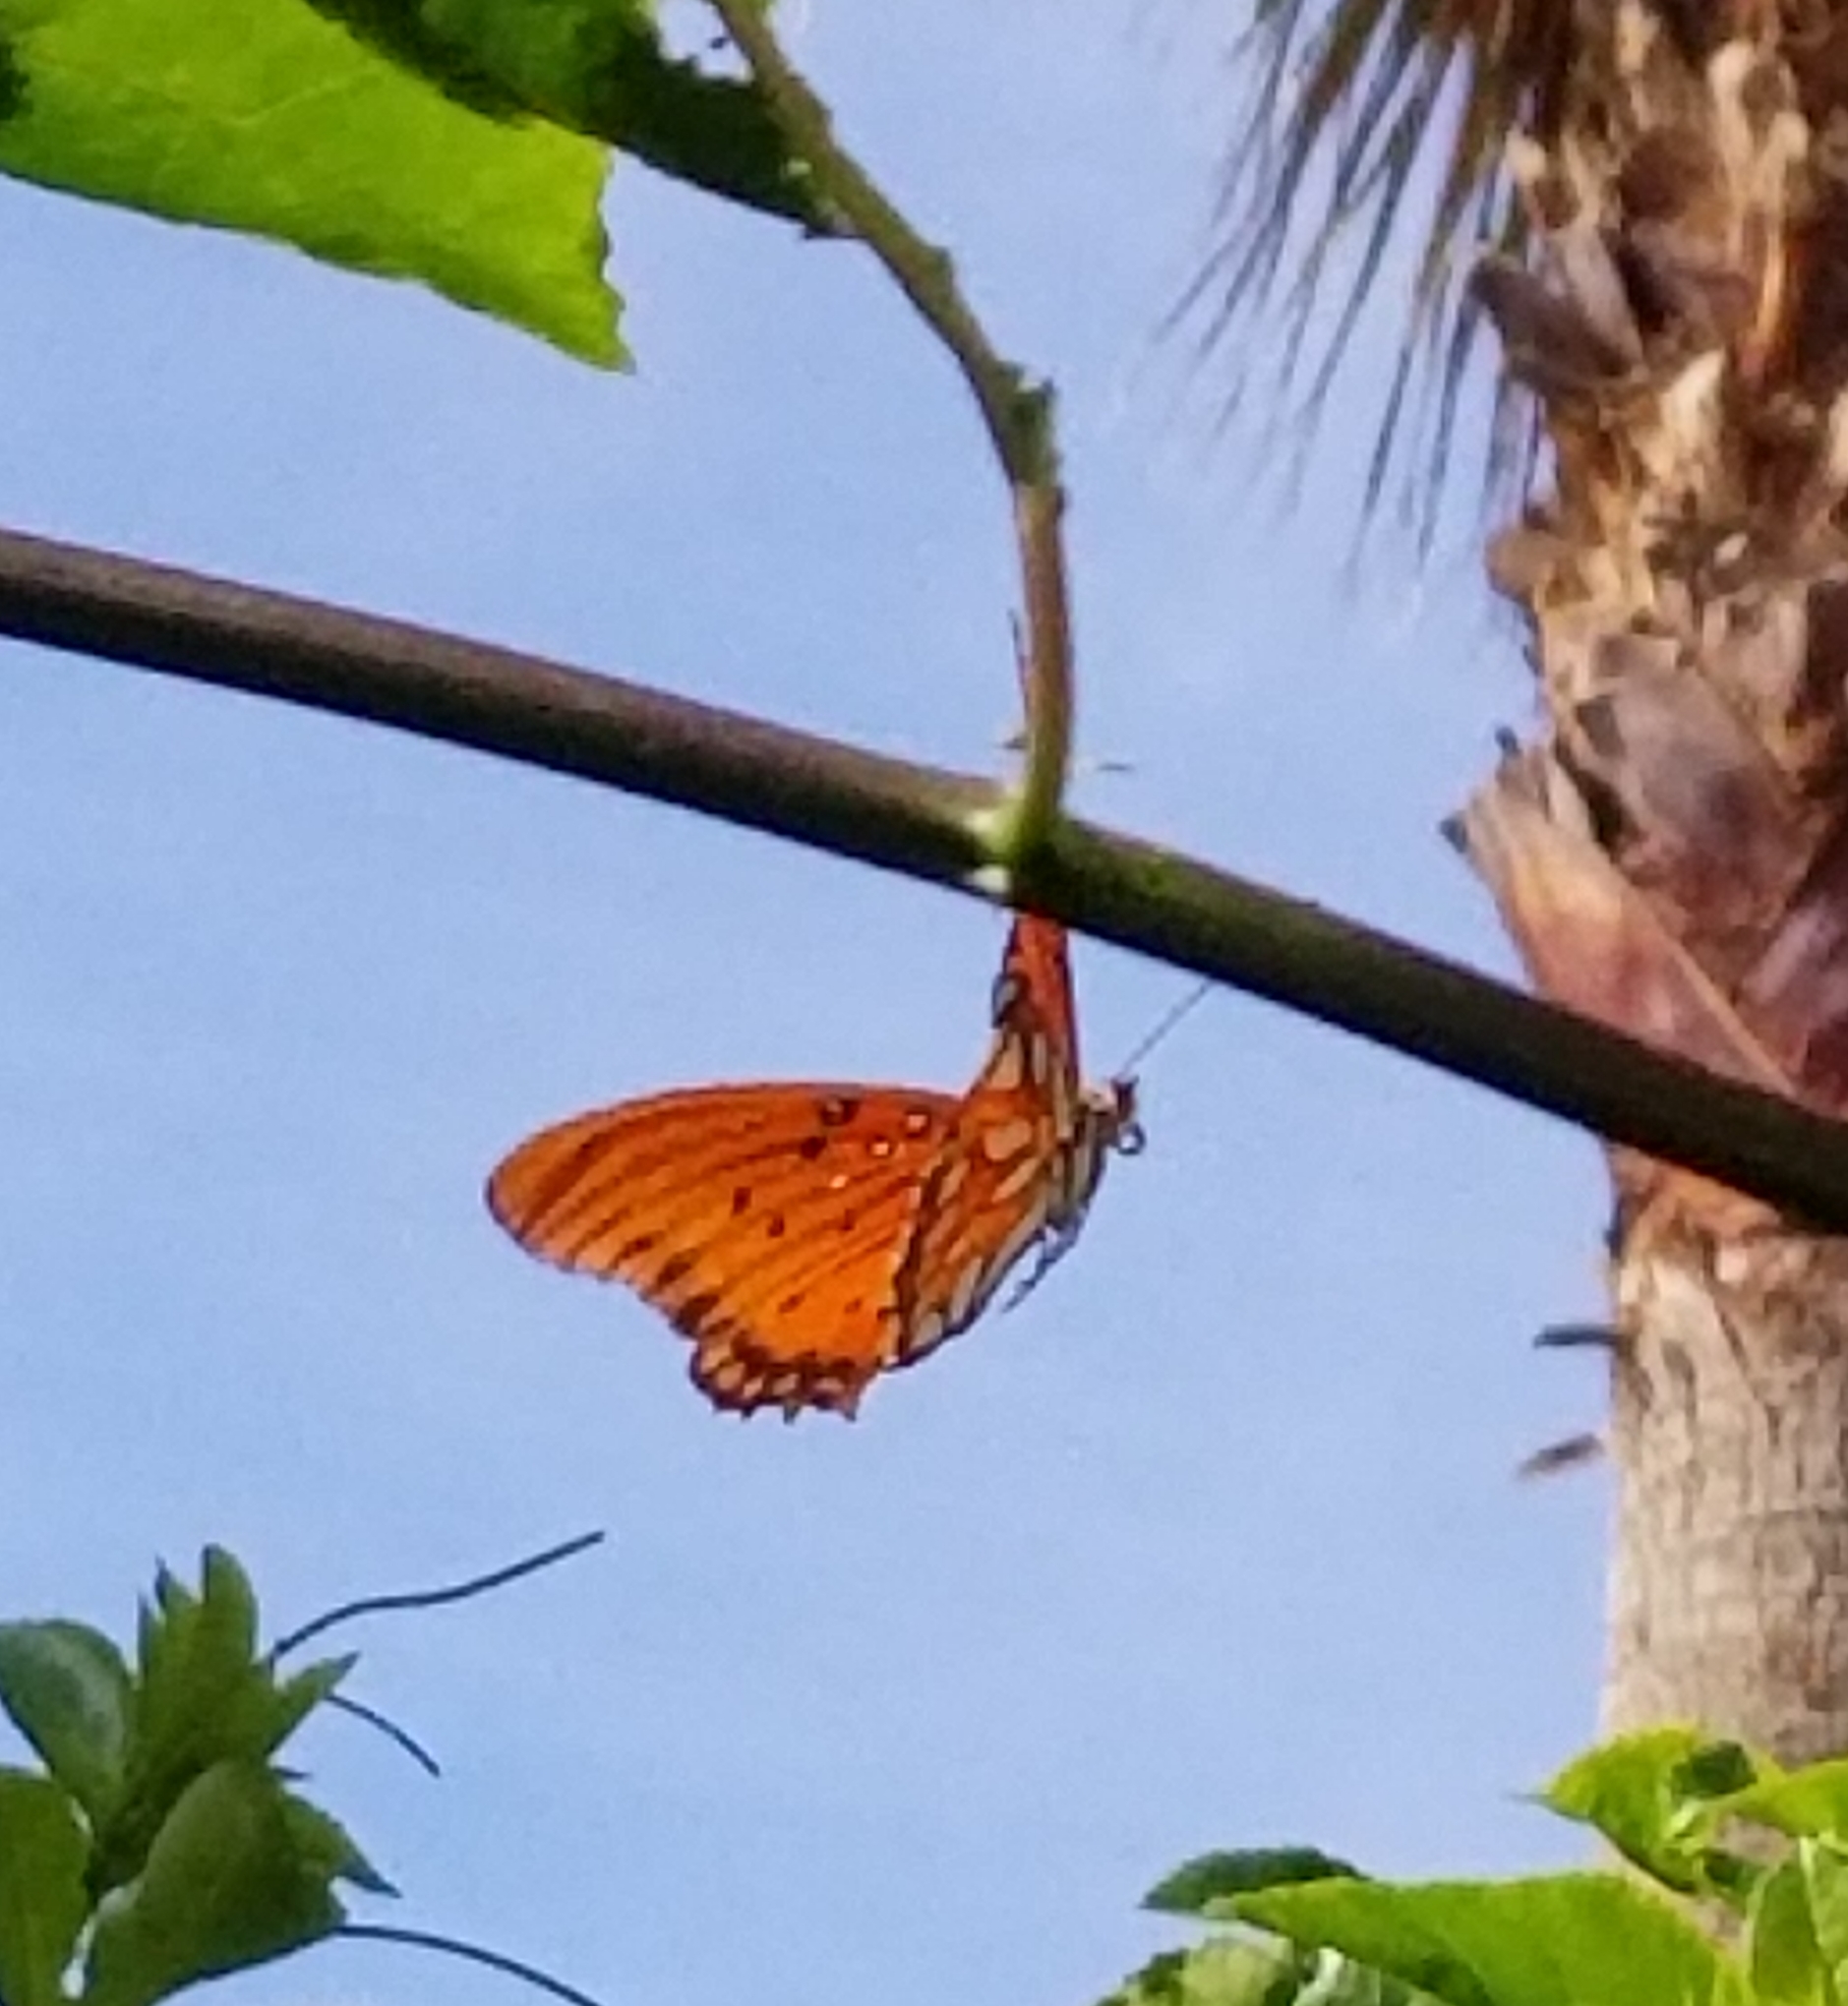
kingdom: Animalia
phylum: Arthropoda
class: Insecta
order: Lepidoptera
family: Nymphalidae
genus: Dione
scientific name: Dione vanillae
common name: Gulf fritillary
